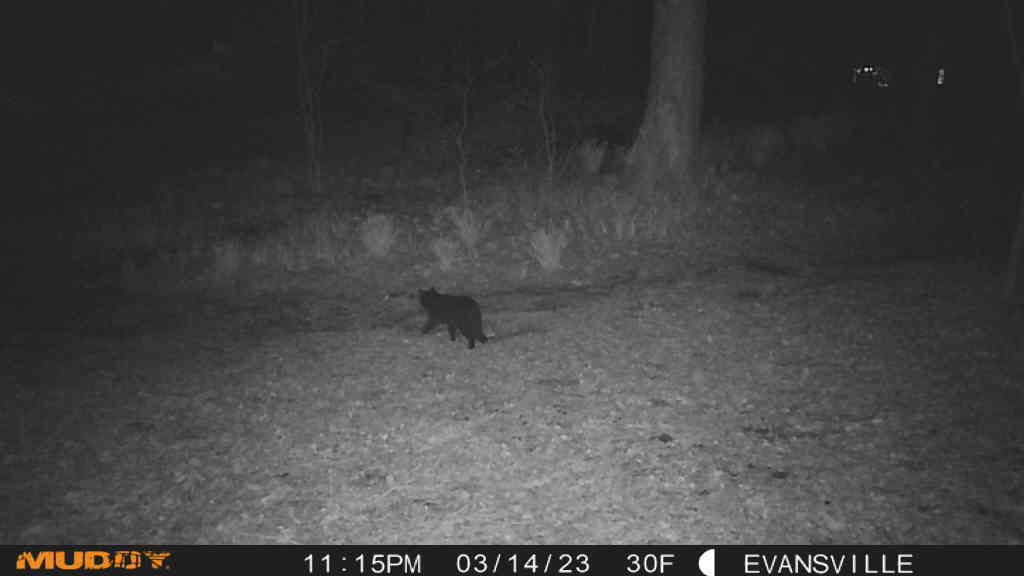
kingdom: Animalia
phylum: Chordata
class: Mammalia
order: Carnivora
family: Felidae
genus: Felis
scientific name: Felis catus
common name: Domestic cat
